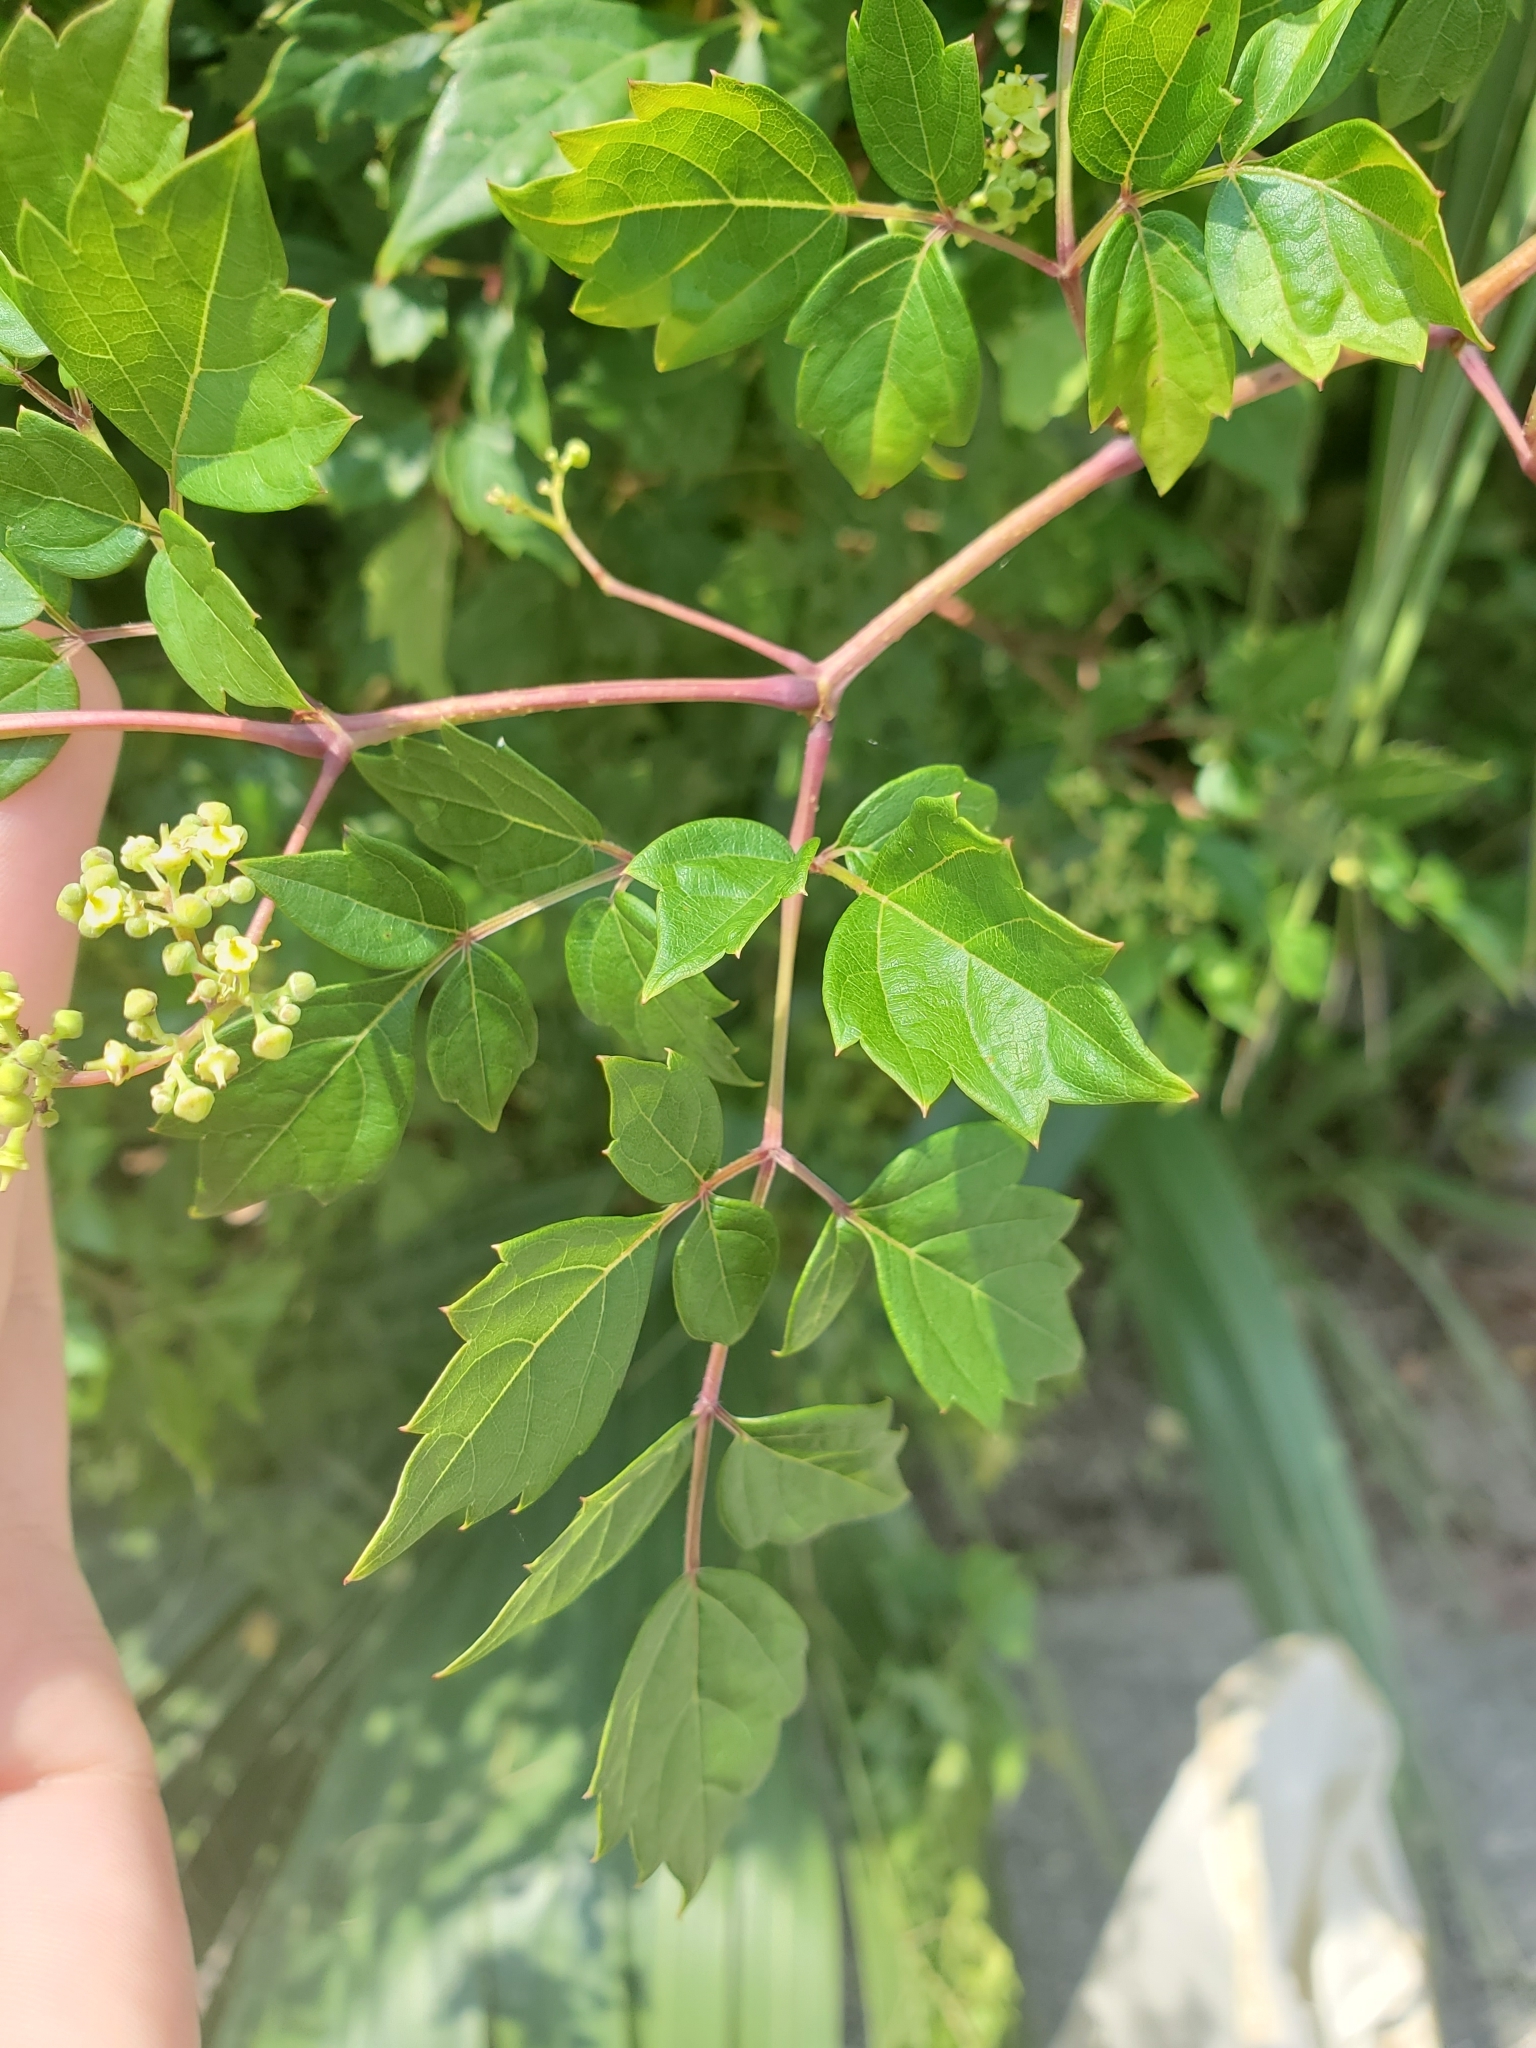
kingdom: Plantae
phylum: Tracheophyta
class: Magnoliopsida
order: Vitales
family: Vitaceae
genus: Nekemias
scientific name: Nekemias arborea
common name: Peppervine
